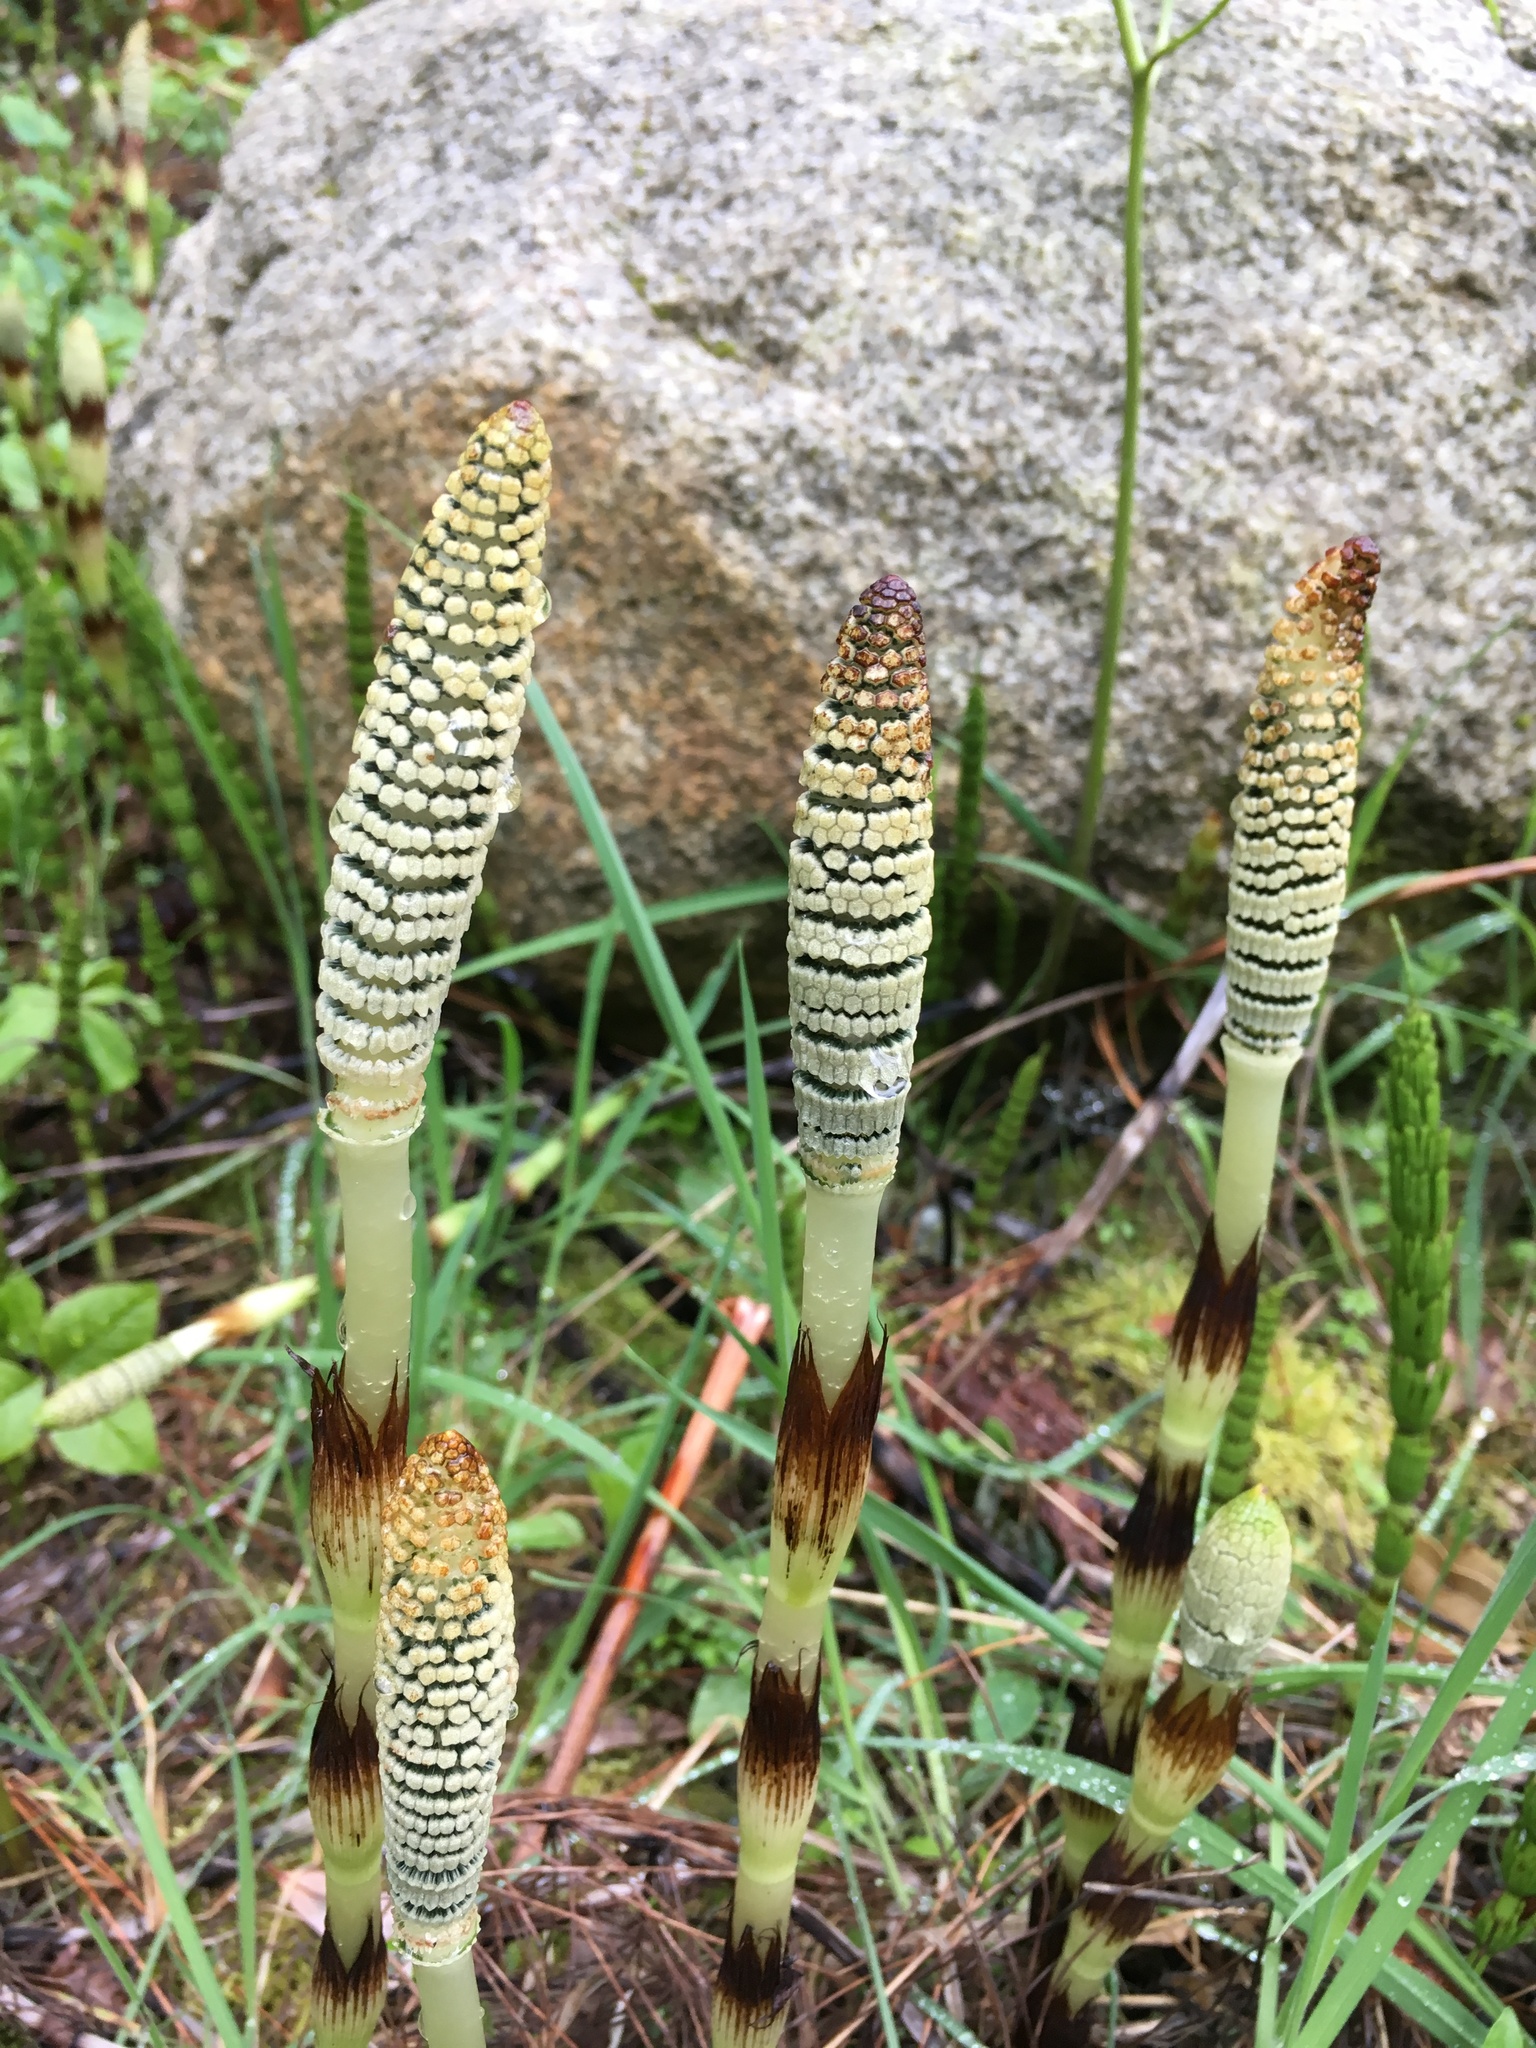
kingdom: Plantae
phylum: Tracheophyta
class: Polypodiopsida
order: Equisetales
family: Equisetaceae
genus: Equisetum
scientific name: Equisetum braunii
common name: Braun's horsetail
